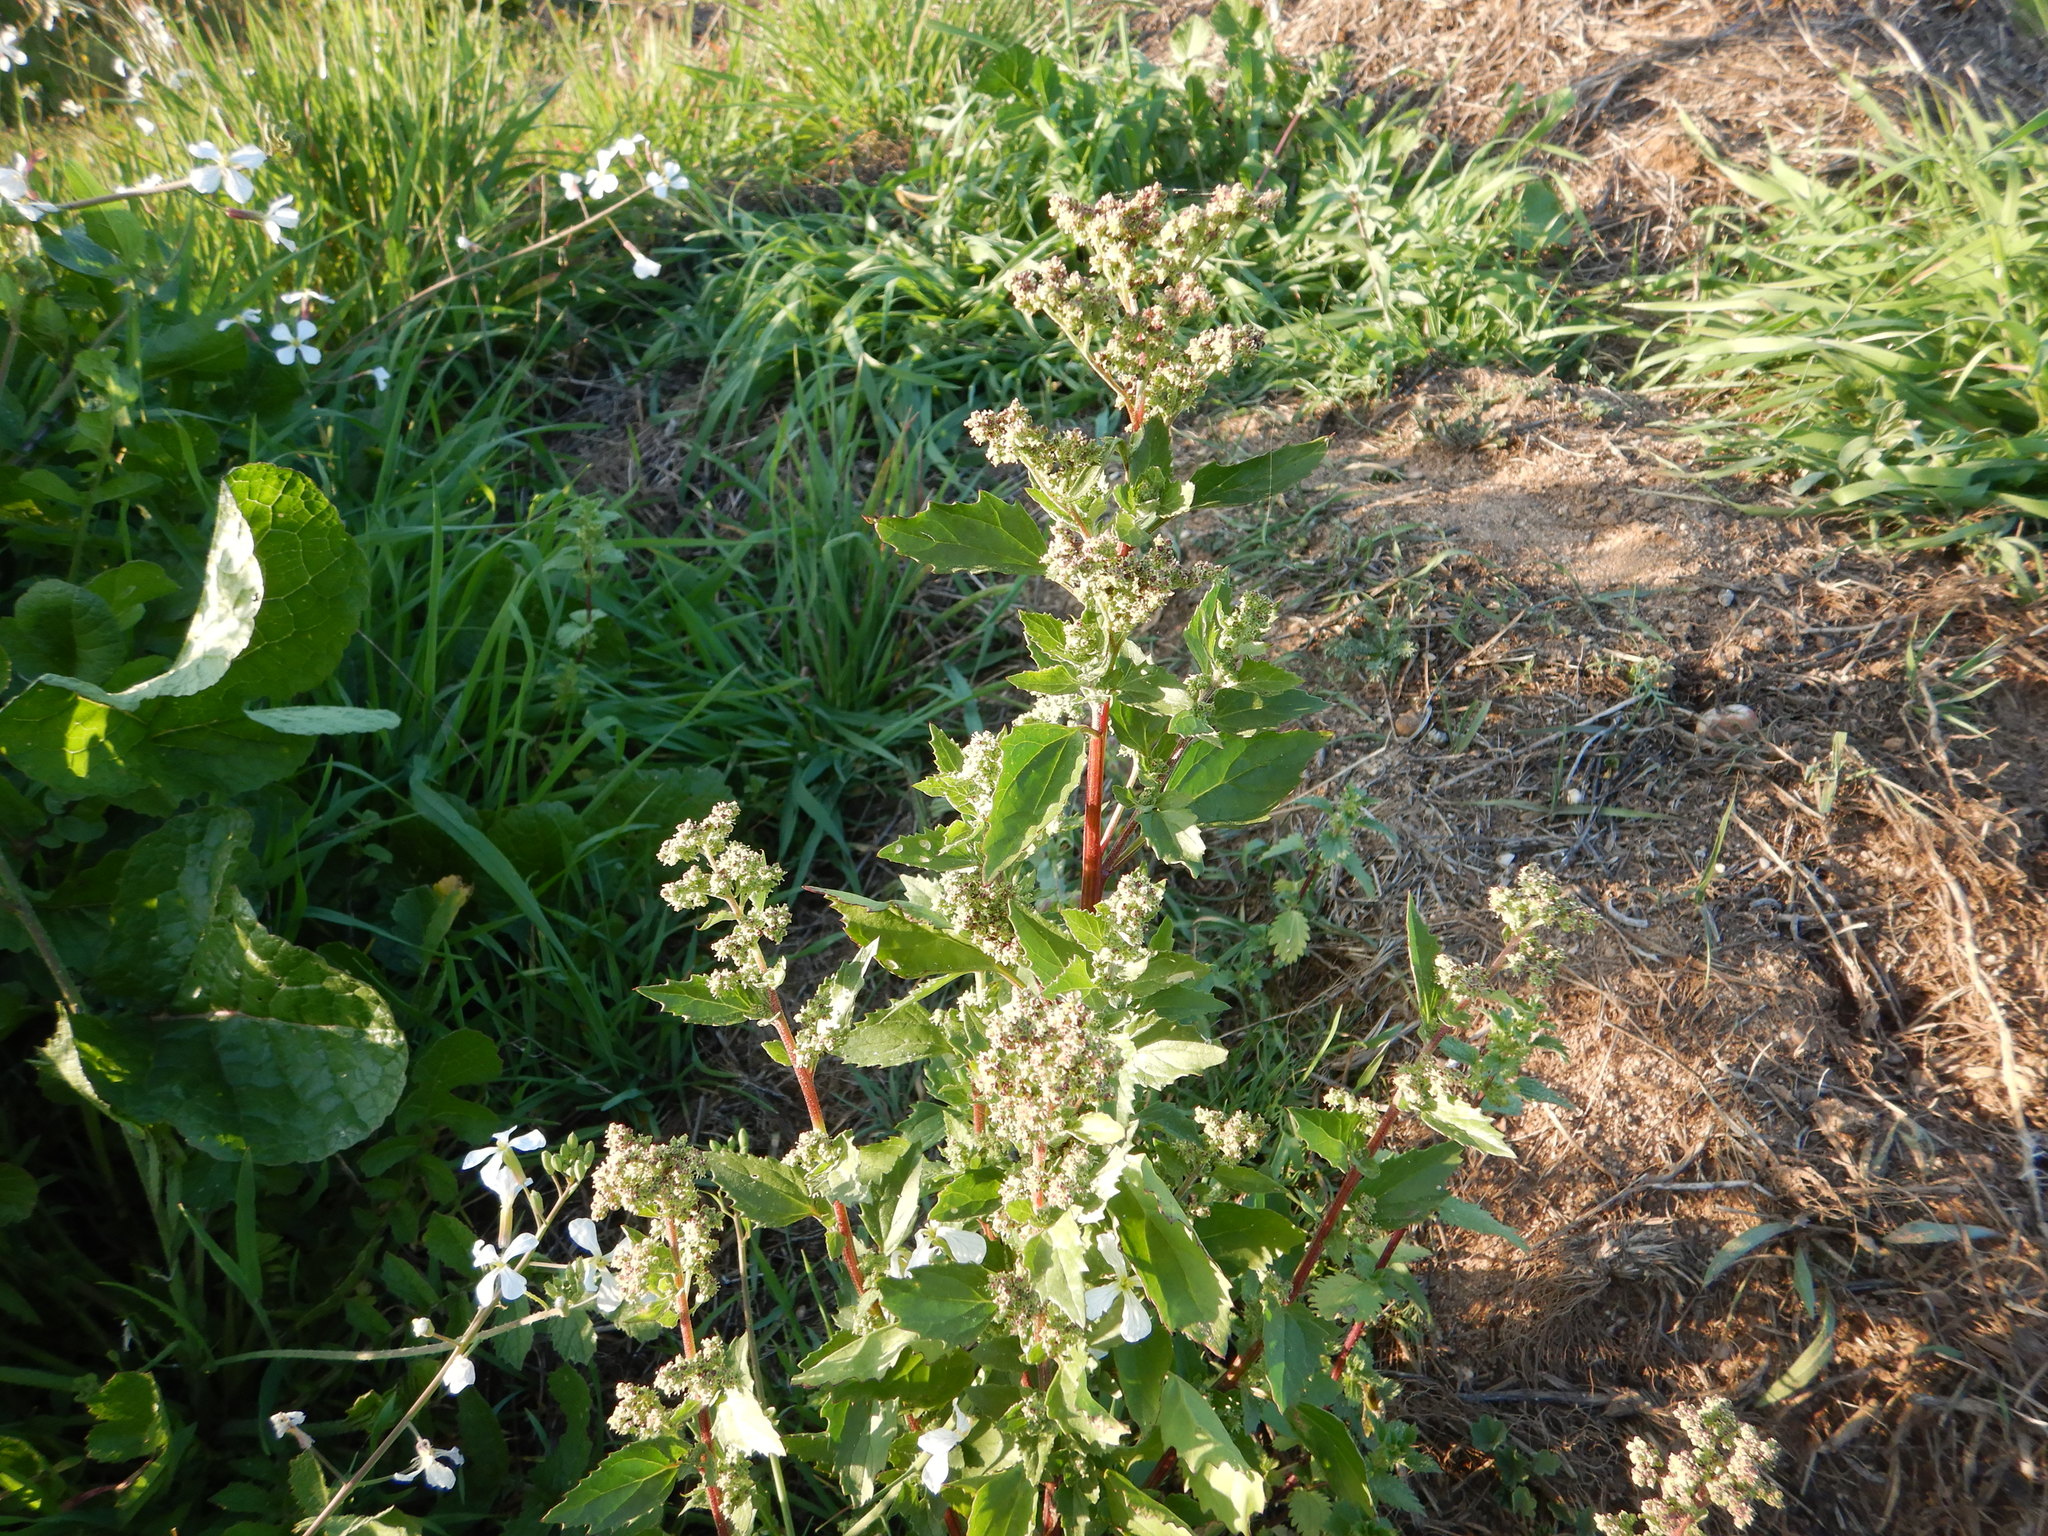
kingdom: Plantae
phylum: Tracheophyta
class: Magnoliopsida
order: Caryophyllales
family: Amaranthaceae
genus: Chenopodiastrum
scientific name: Chenopodiastrum murale
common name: Sowbane
